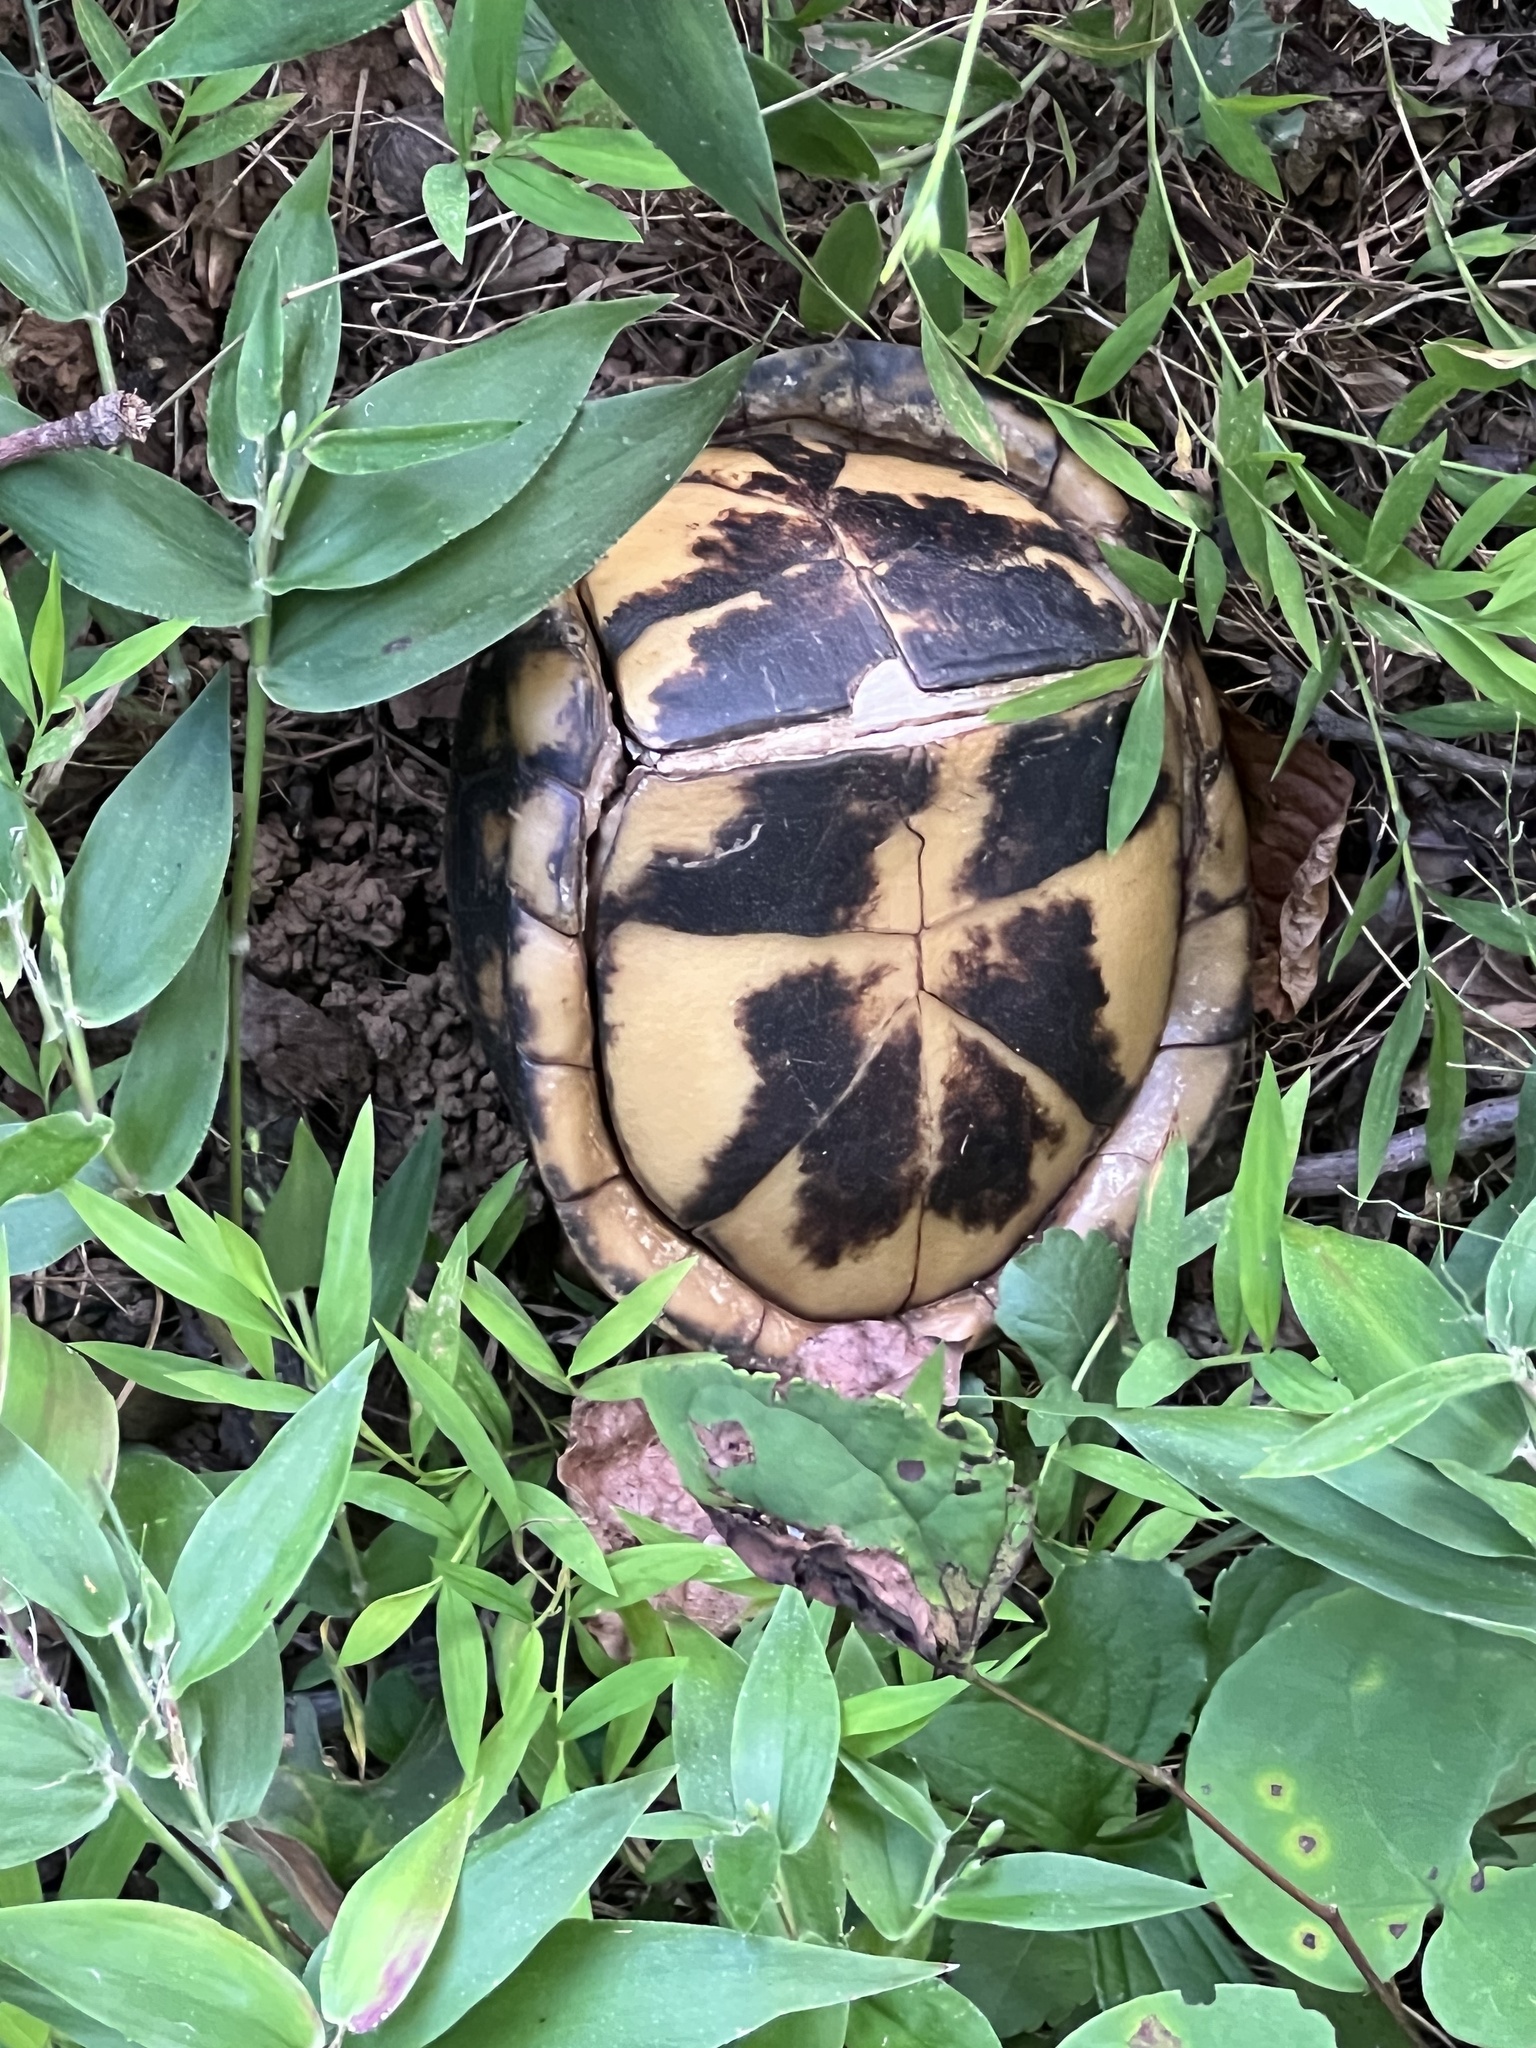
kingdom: Animalia
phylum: Chordata
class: Testudines
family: Emydidae
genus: Terrapene
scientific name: Terrapene carolina
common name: Common box turtle
